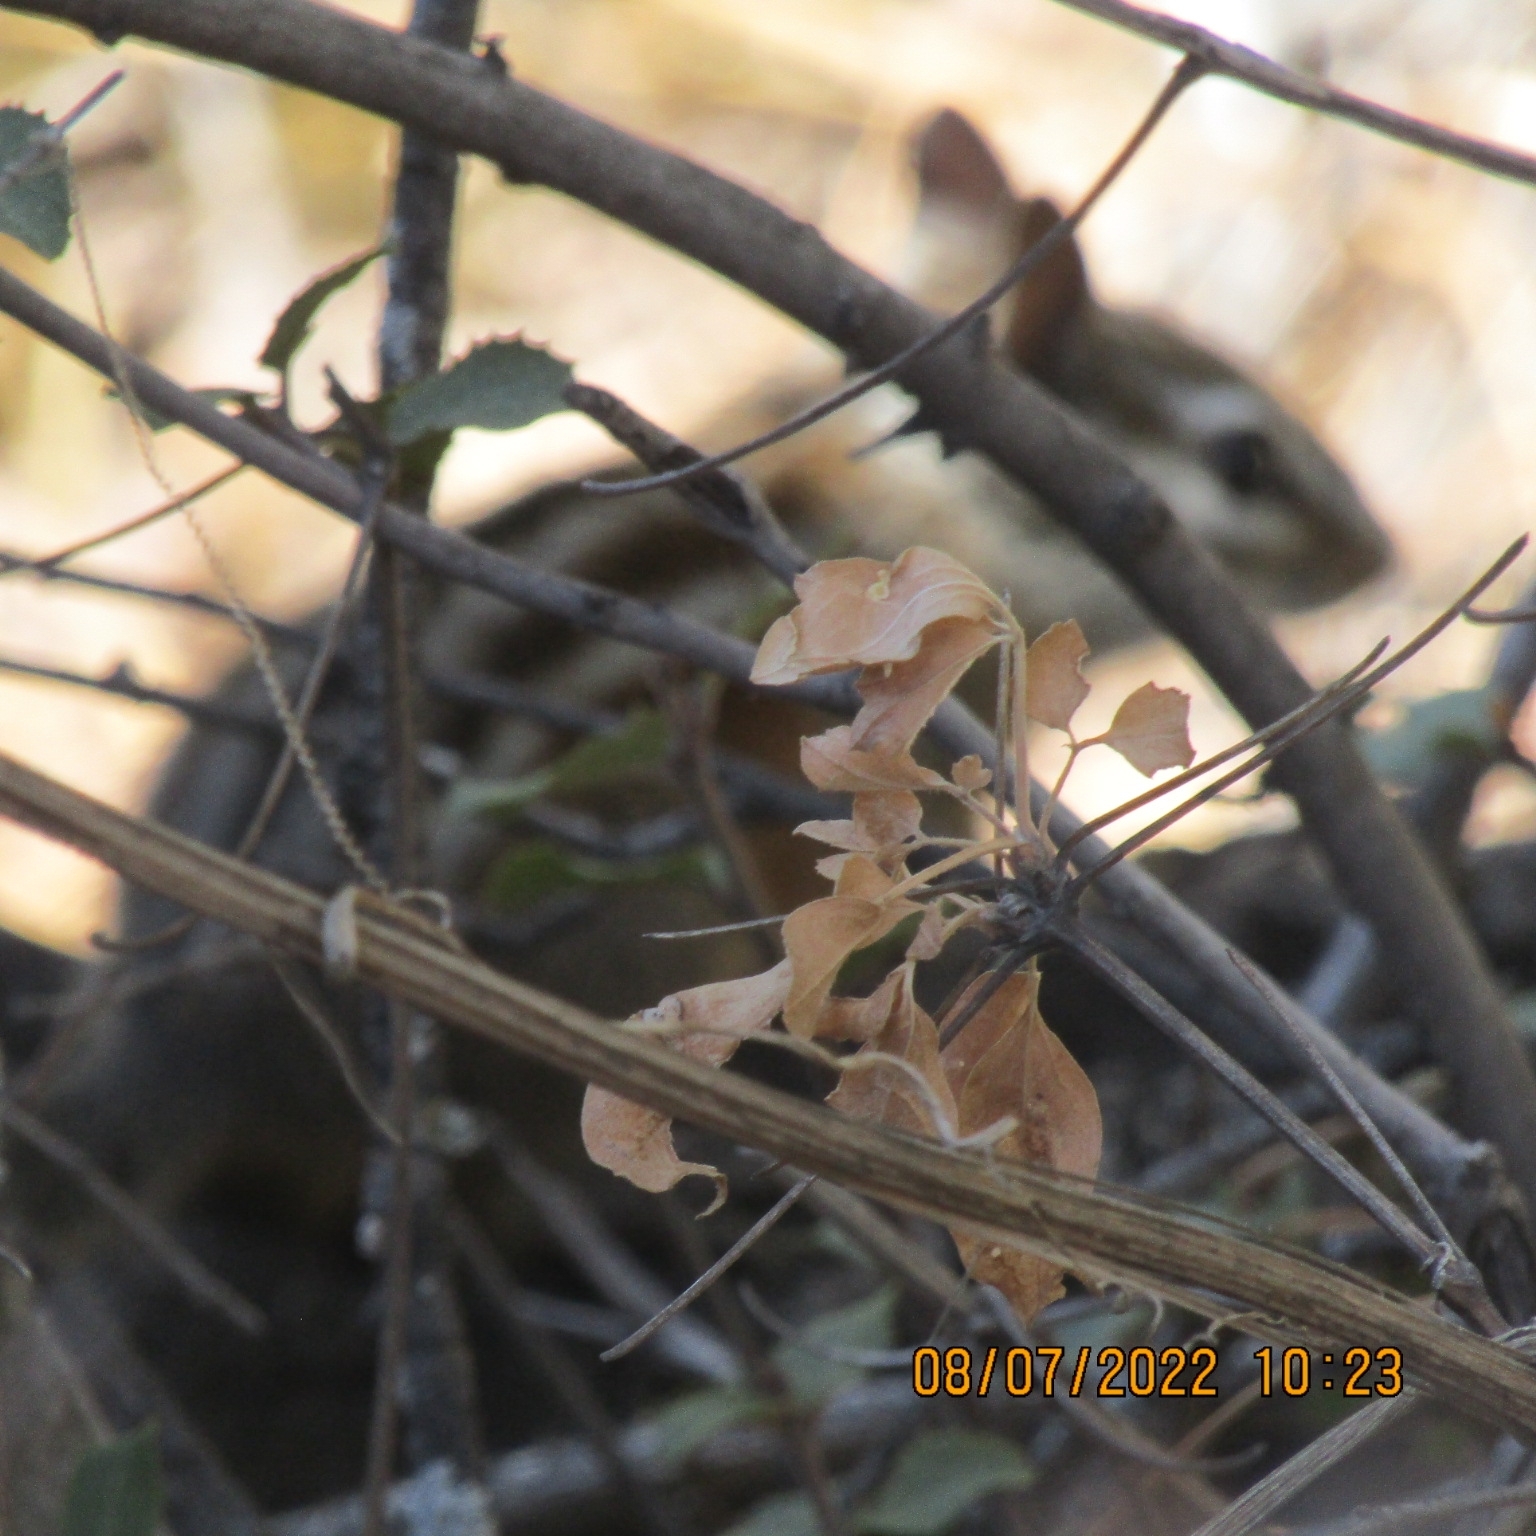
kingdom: Animalia
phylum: Chordata
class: Mammalia
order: Rodentia
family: Sciuridae
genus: Tamias
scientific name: Tamias merriami
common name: Merriam's chipmunk
